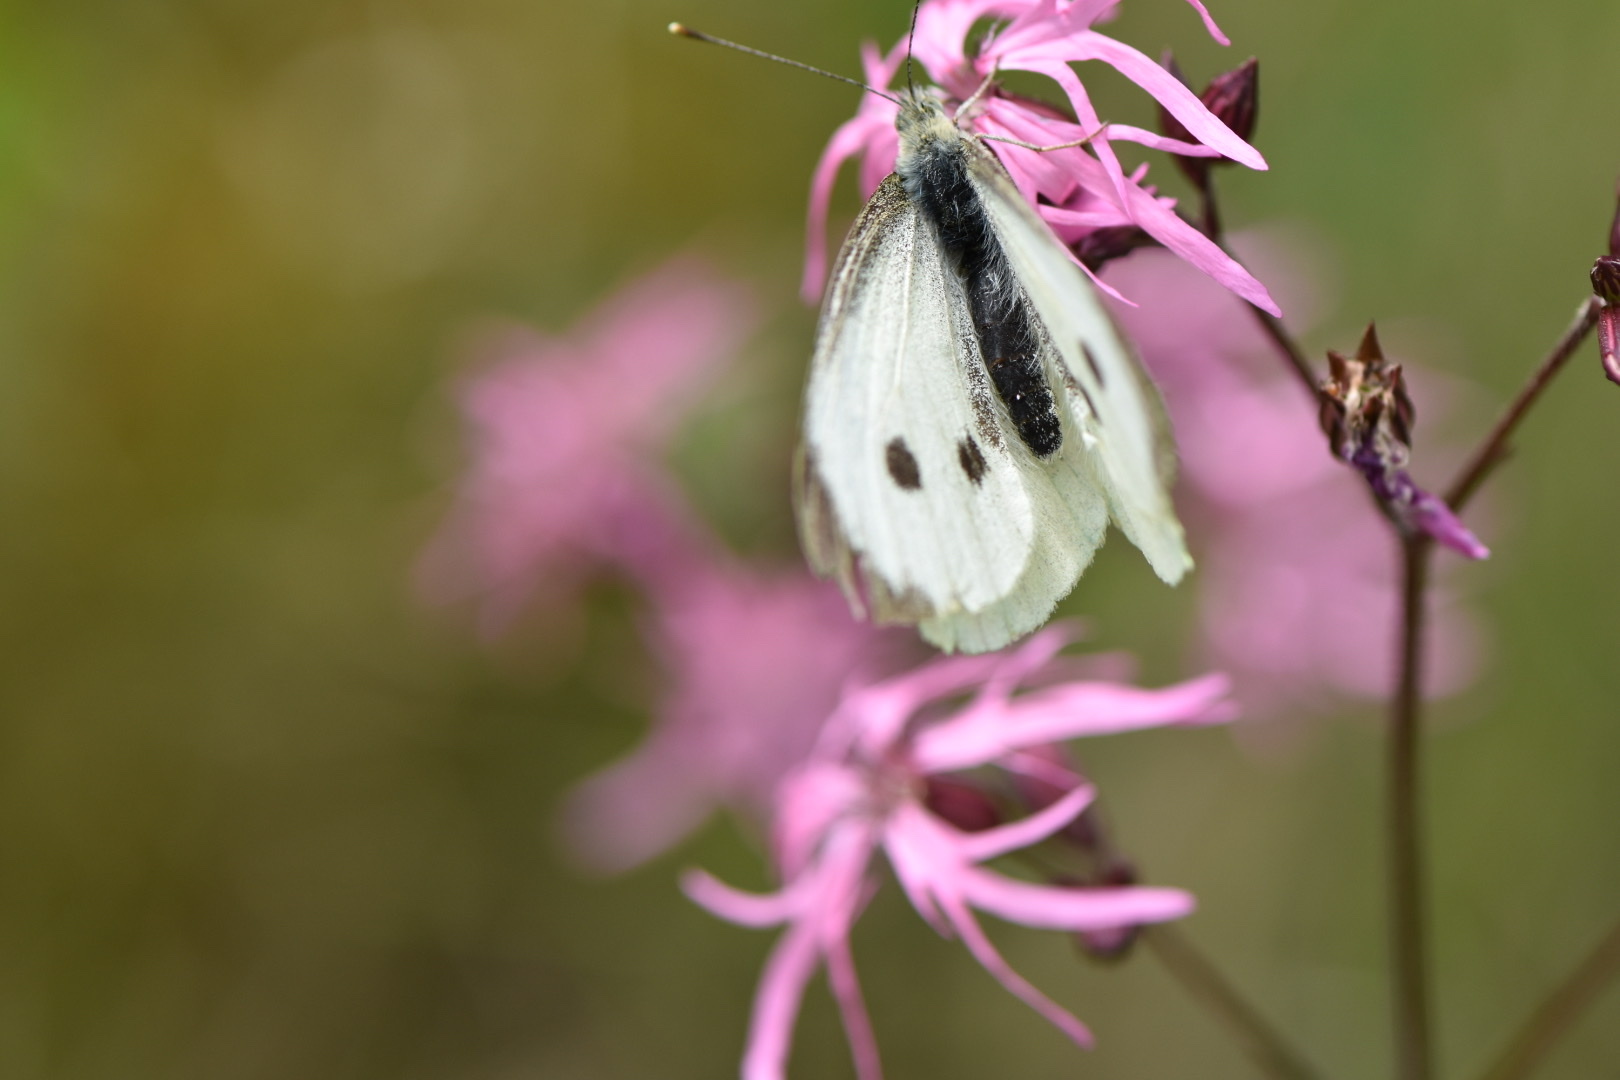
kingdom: Animalia
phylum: Arthropoda
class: Insecta
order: Lepidoptera
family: Pieridae
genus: Pieris
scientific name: Pieris brassicae
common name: Large white
